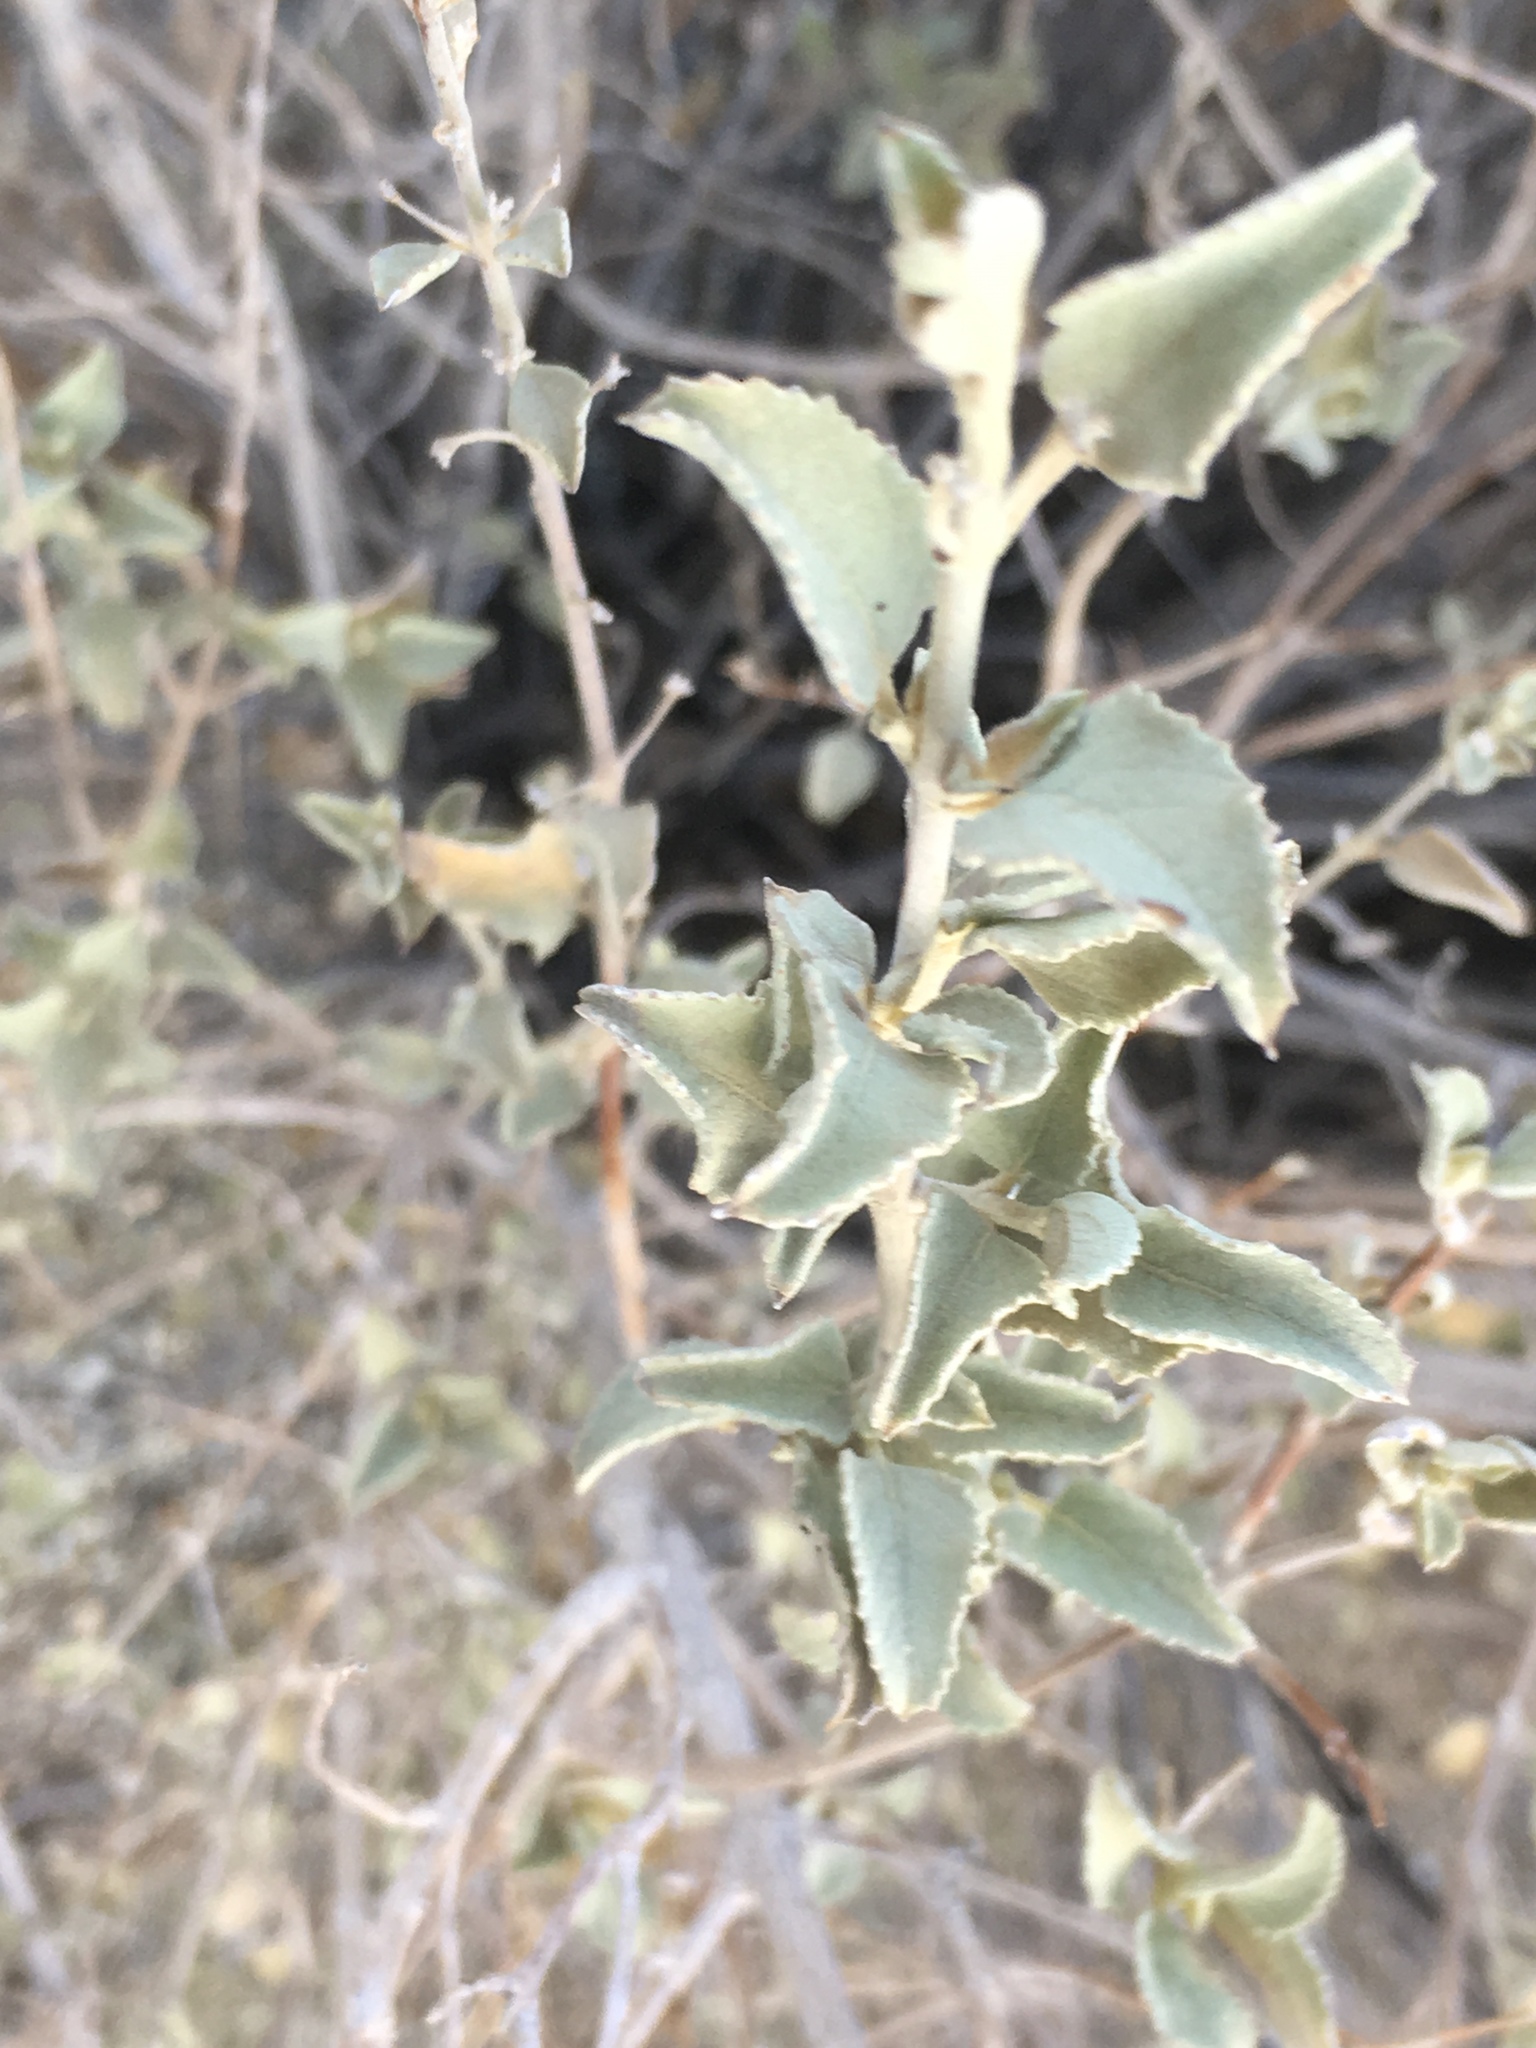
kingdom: Plantae
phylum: Tracheophyta
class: Magnoliopsida
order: Lamiales
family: Lamiaceae
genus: Condea
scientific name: Condea emoryi
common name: Chia
